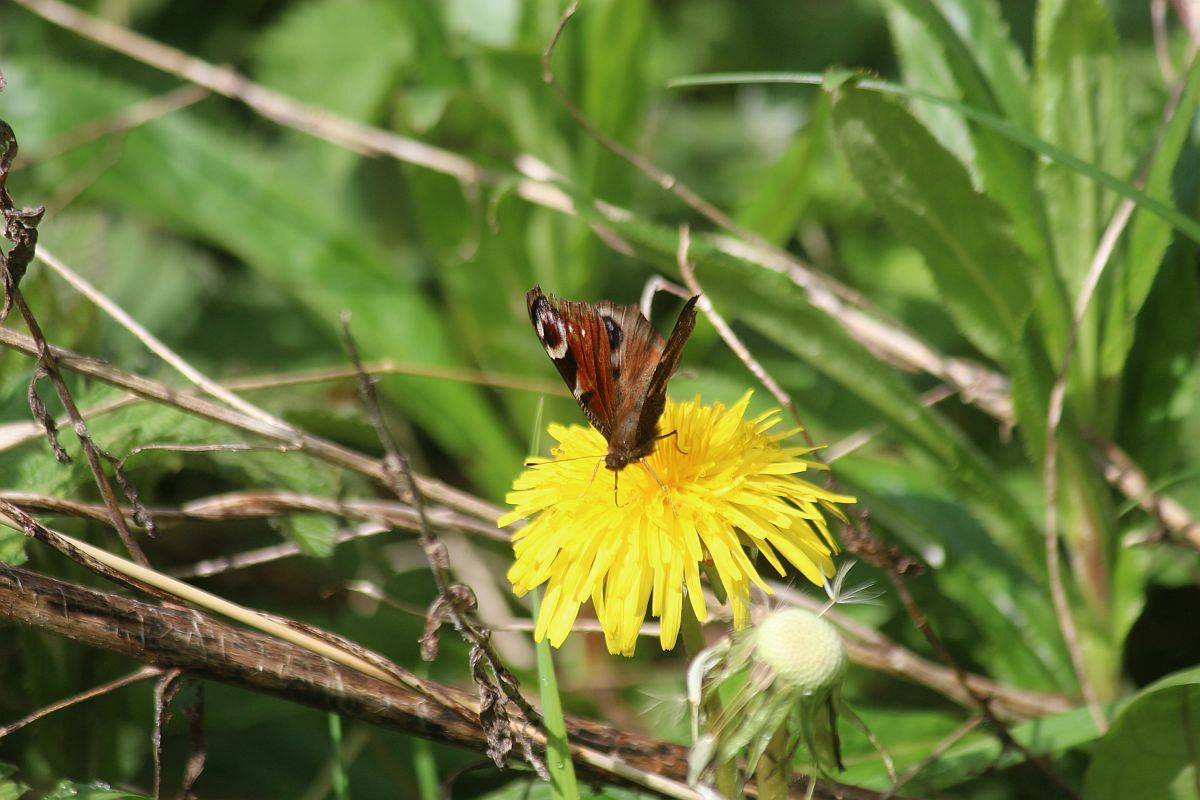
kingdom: Animalia
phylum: Arthropoda
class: Insecta
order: Lepidoptera
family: Nymphalidae
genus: Aglais
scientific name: Aglais io
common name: Peacock
